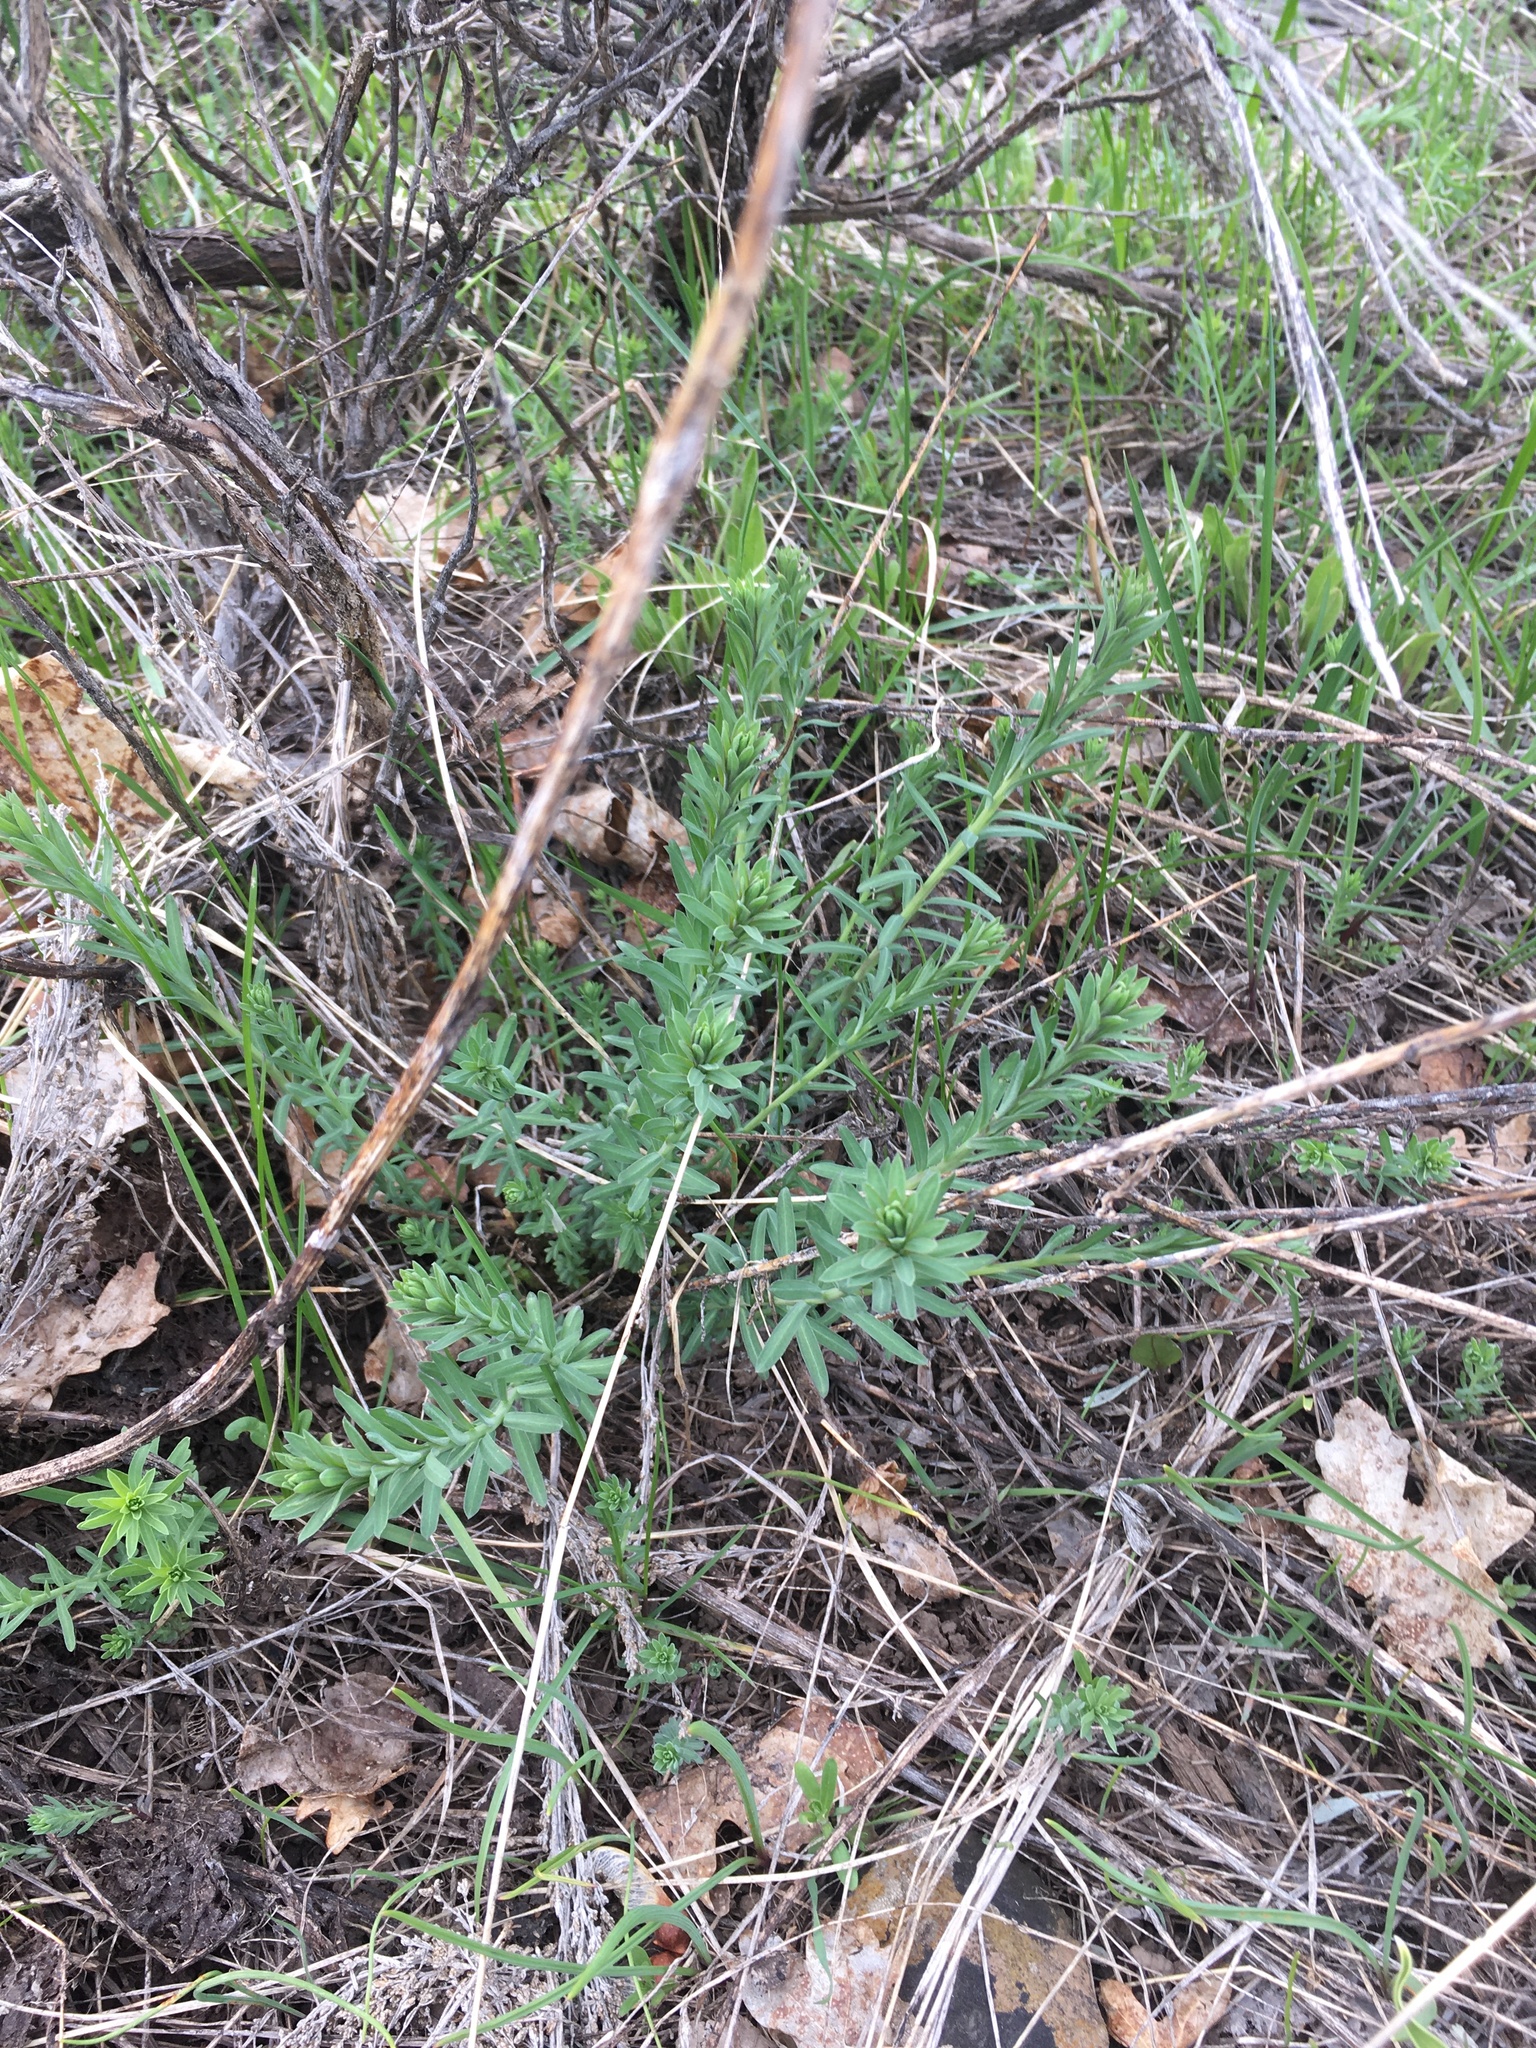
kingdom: Plantae
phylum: Tracheophyta
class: Magnoliopsida
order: Santalales
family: Comandraceae
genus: Comandra
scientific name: Comandra umbellata
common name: Bastard toadflax
